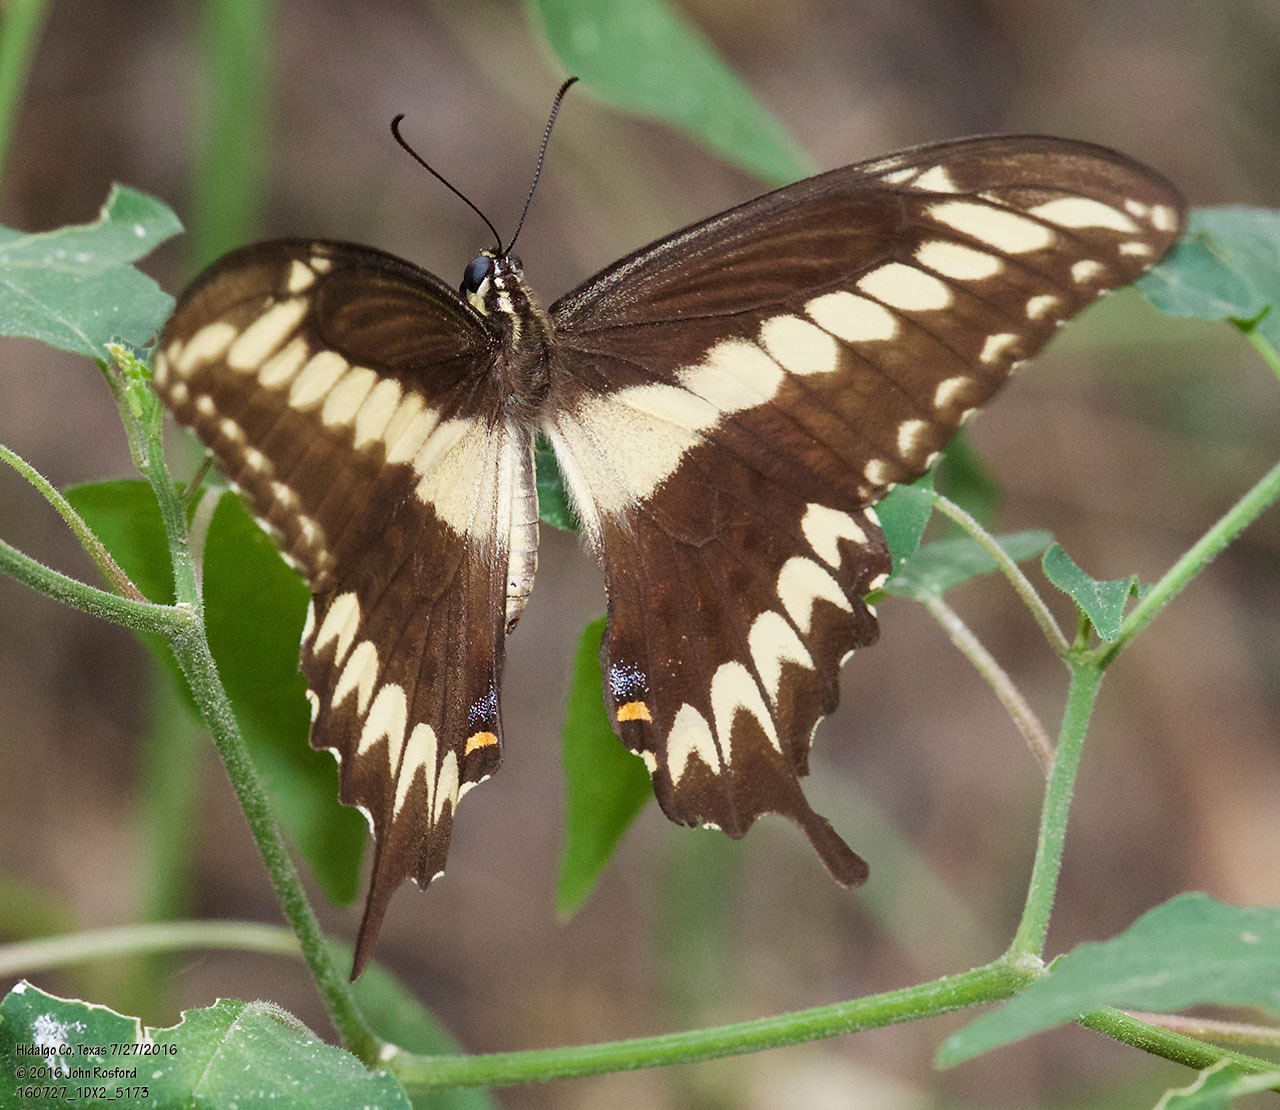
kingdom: Animalia
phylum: Arthropoda
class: Insecta
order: Lepidoptera
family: Papilionidae
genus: Papilio
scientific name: Papilio ornythion
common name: Ornythion swallowtail
